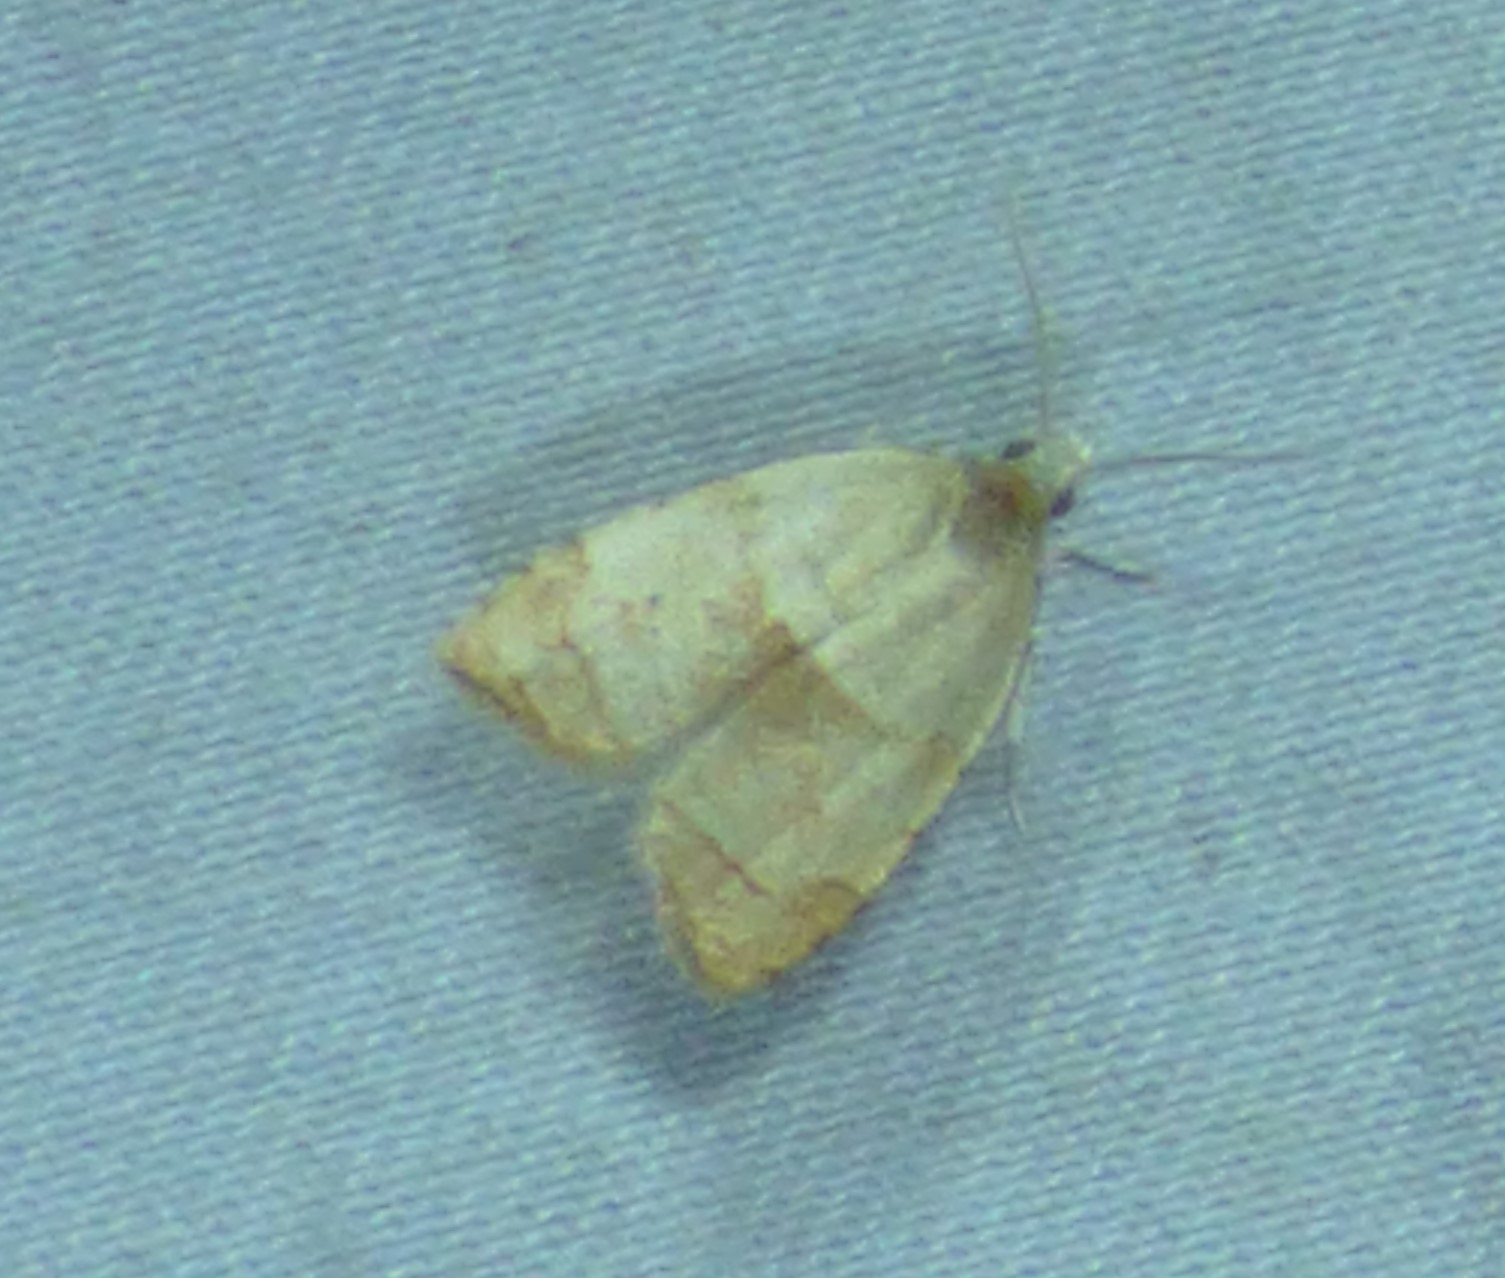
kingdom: Animalia
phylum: Arthropoda
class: Insecta
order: Lepidoptera
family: Tortricidae
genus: Coelostathma
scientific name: Coelostathma discopunctana
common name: Batman moth
